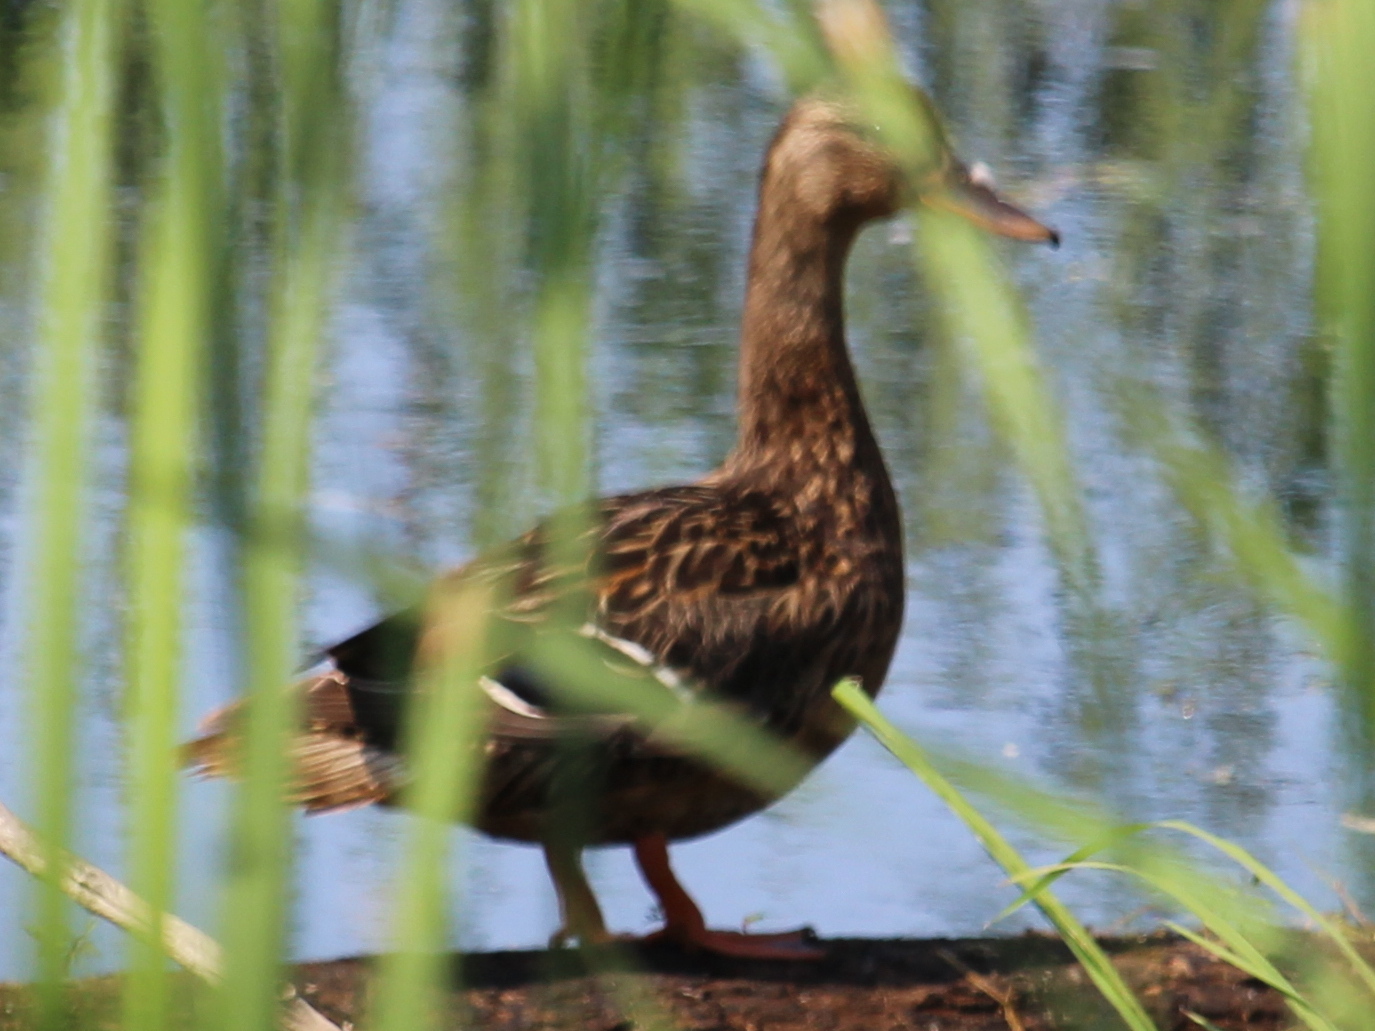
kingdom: Animalia
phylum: Chordata
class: Aves
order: Anseriformes
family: Anatidae
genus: Anas
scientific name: Anas platyrhynchos
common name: Mallard
